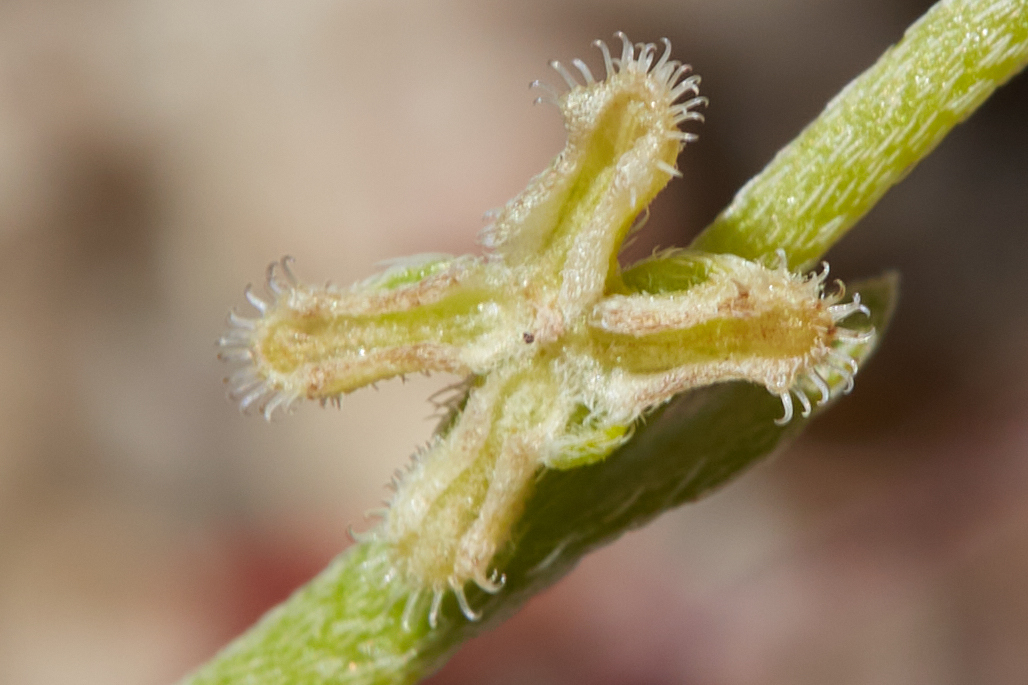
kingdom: Plantae
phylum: Tracheophyta
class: Magnoliopsida
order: Boraginales
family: Boraginaceae
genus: Pectocarya
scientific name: Pectocarya penicillata
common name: Short-leaved combseed
